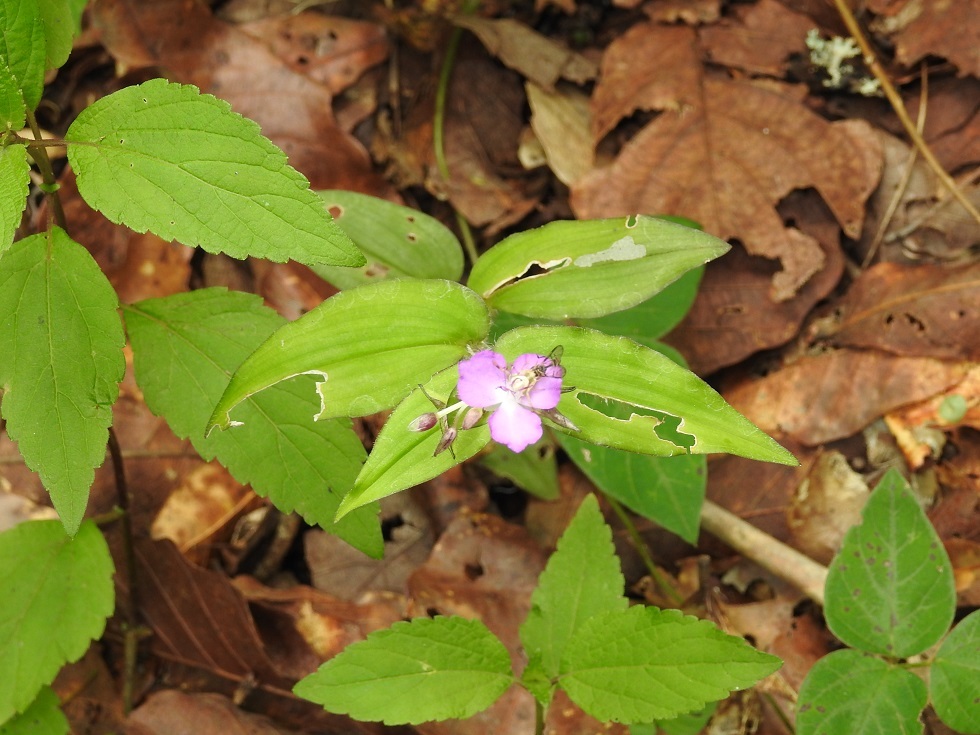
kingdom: Plantae
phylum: Tracheophyta
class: Liliopsida
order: Commelinales
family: Commelinaceae
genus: Tradescantia
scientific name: Tradescantia commelinoides
